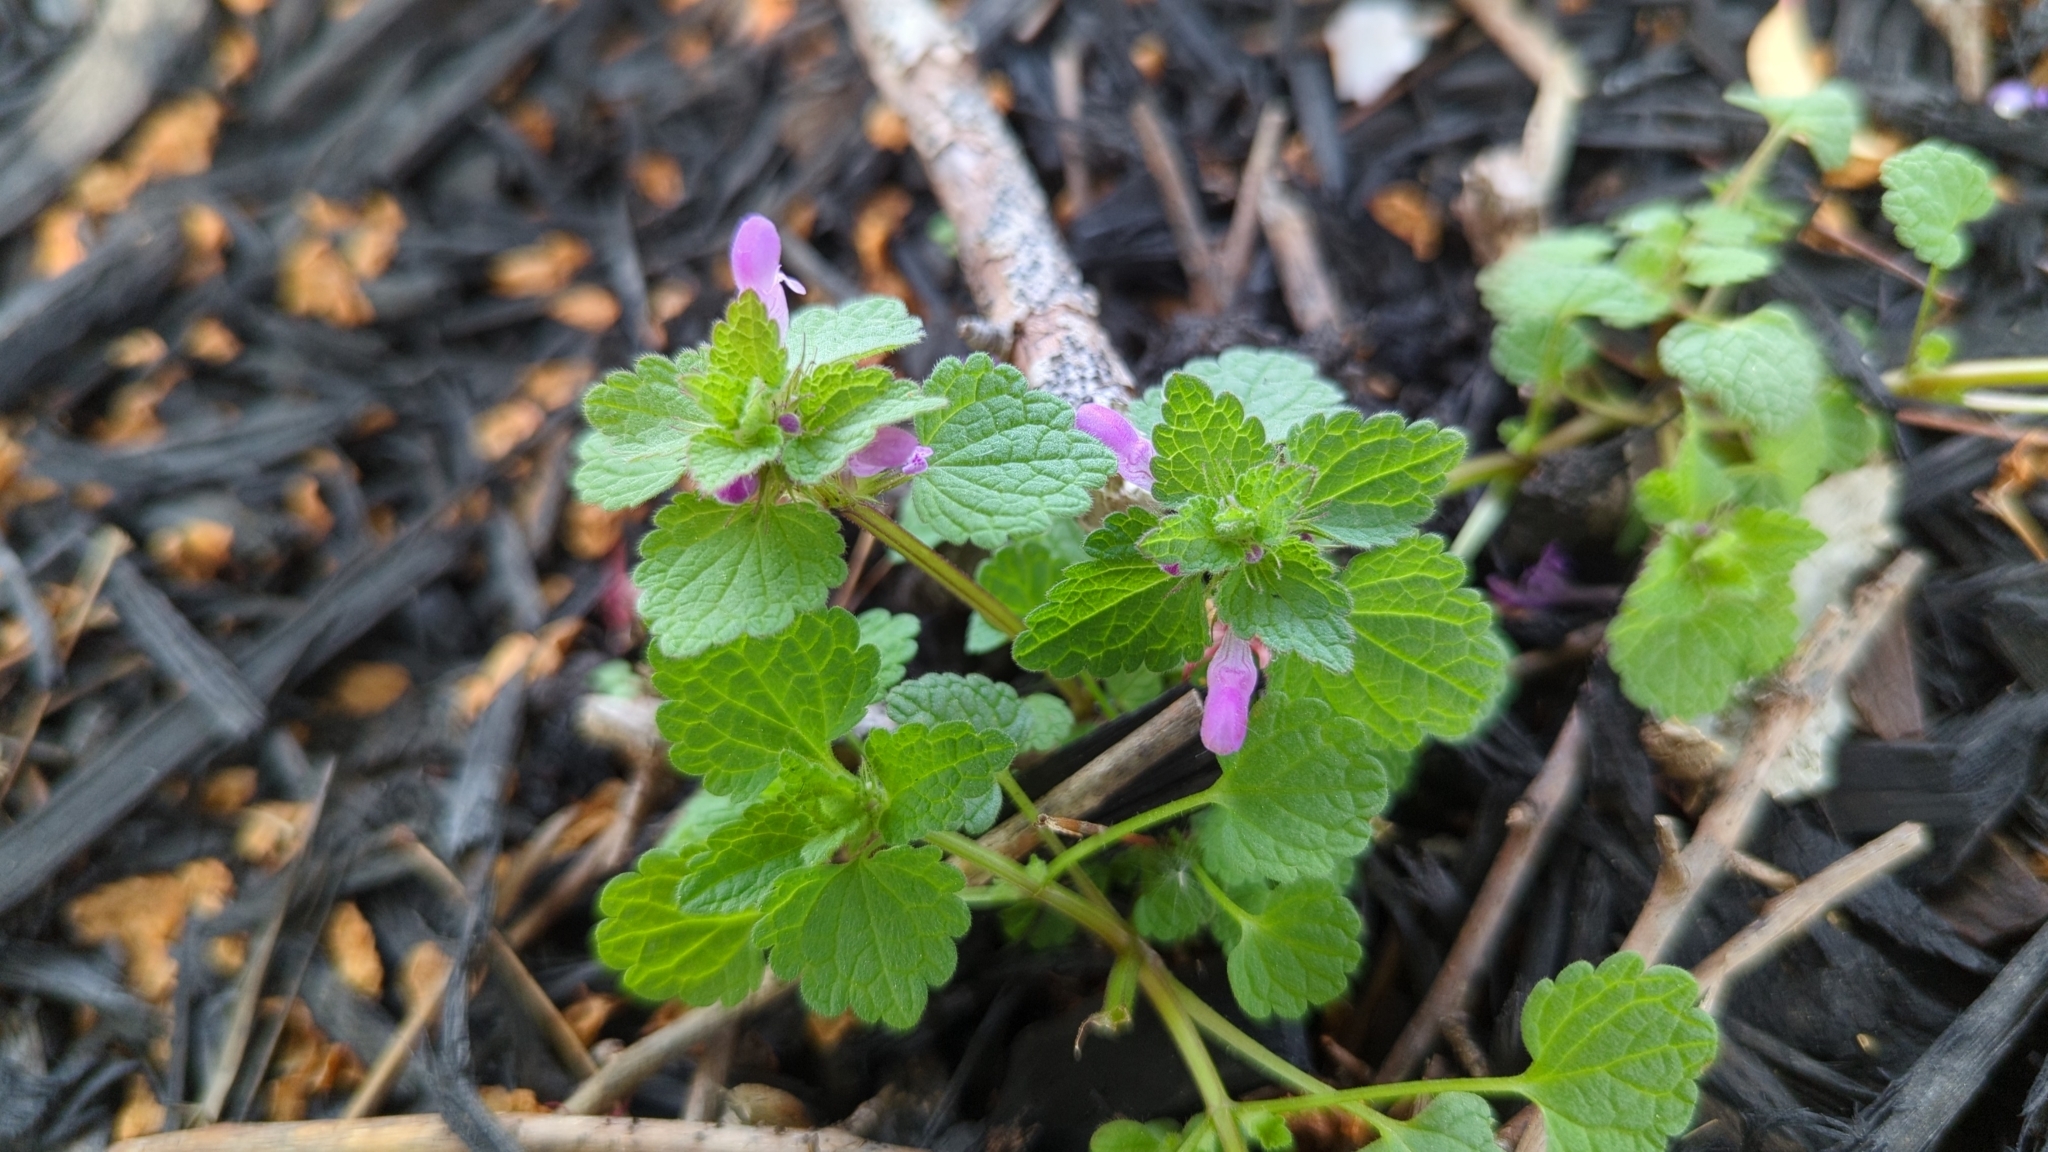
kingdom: Plantae
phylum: Tracheophyta
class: Magnoliopsida
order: Lamiales
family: Lamiaceae
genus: Lamium
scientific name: Lamium purpureum
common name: Red dead-nettle
